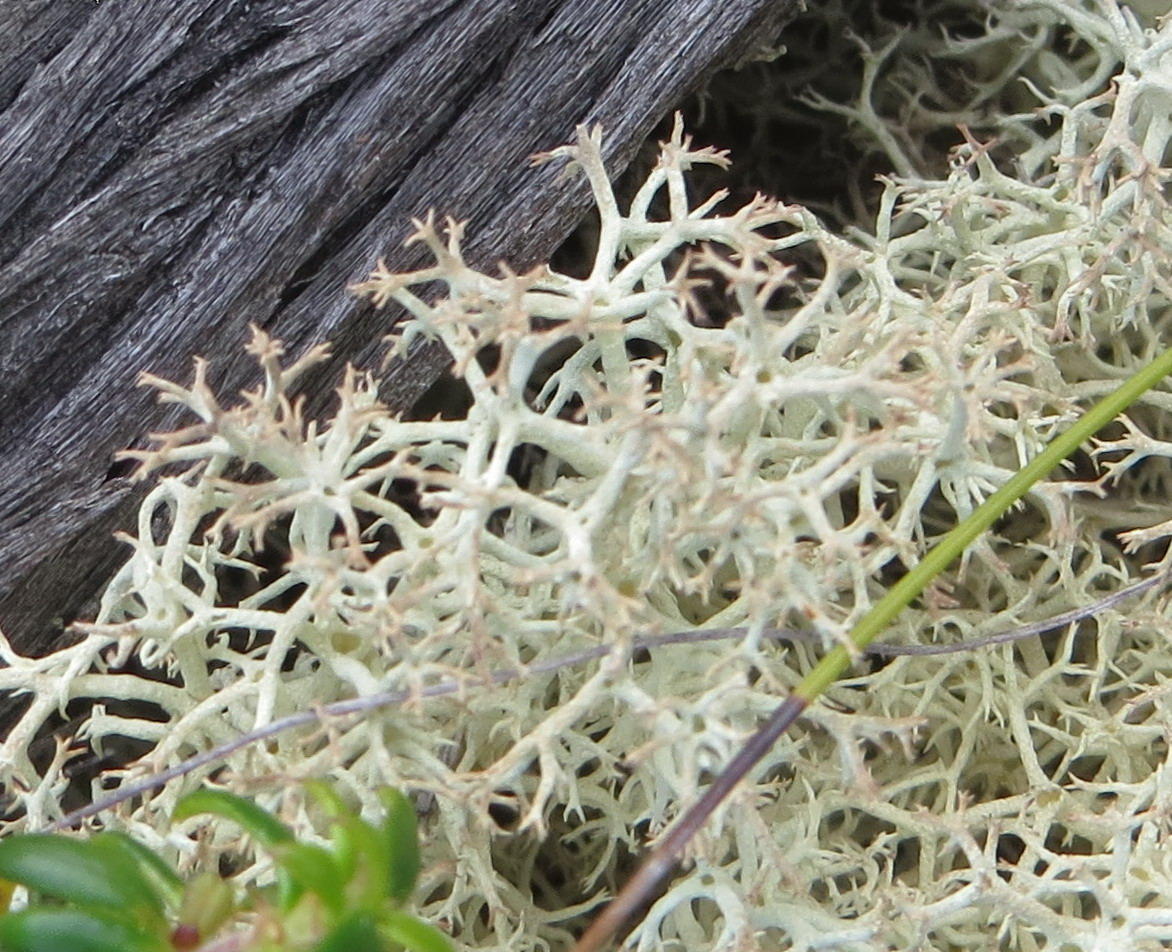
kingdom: Fungi
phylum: Ascomycota
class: Lecanoromycetes
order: Lecanorales
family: Cladoniaceae
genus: Cladonia
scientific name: Cladonia confusa
